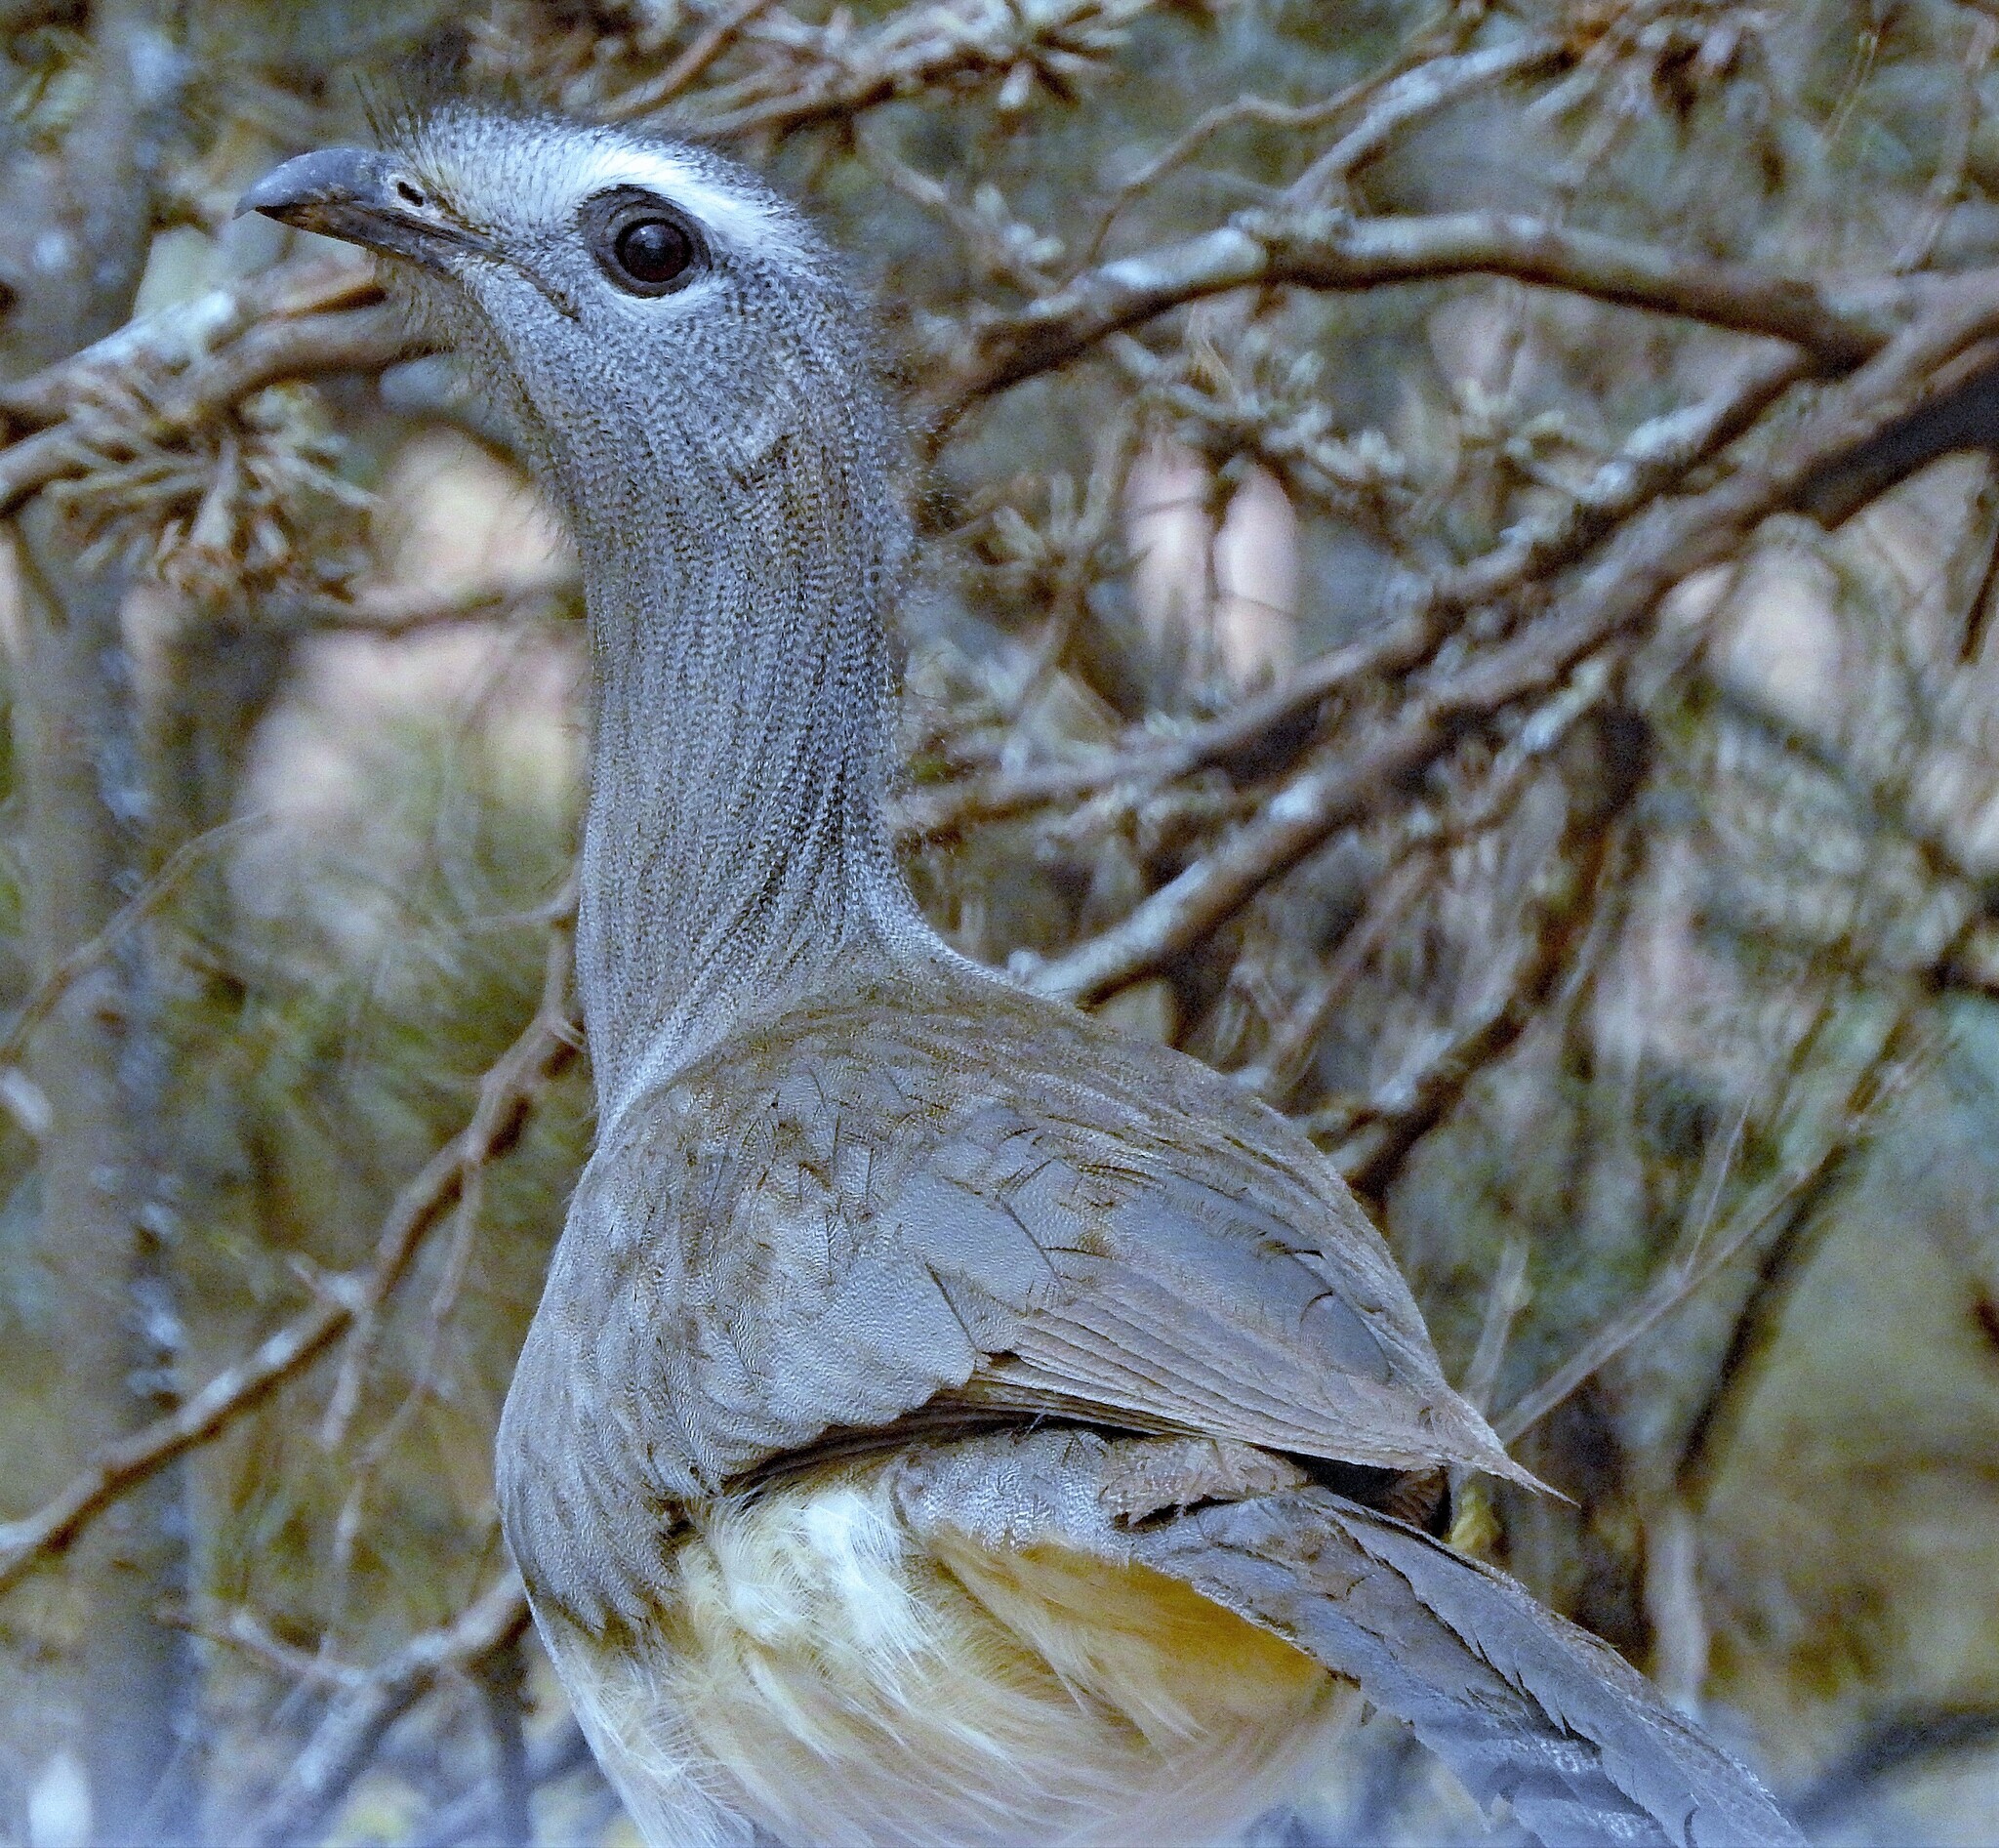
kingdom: Animalia
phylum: Chordata
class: Aves
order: Cariamiformes
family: Cariamidae
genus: Chunga
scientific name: Chunga burmeisteri
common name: Black-legged seriema
